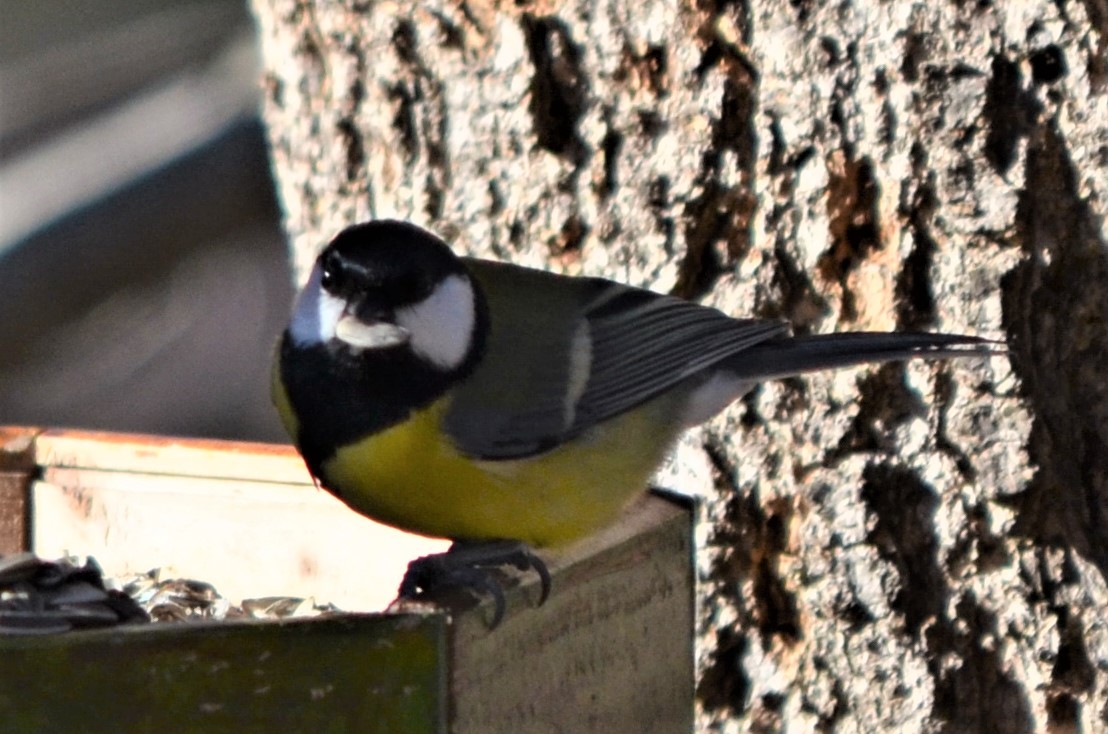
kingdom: Animalia
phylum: Chordata
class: Aves
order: Passeriformes
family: Paridae
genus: Parus
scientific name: Parus major
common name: Great tit
